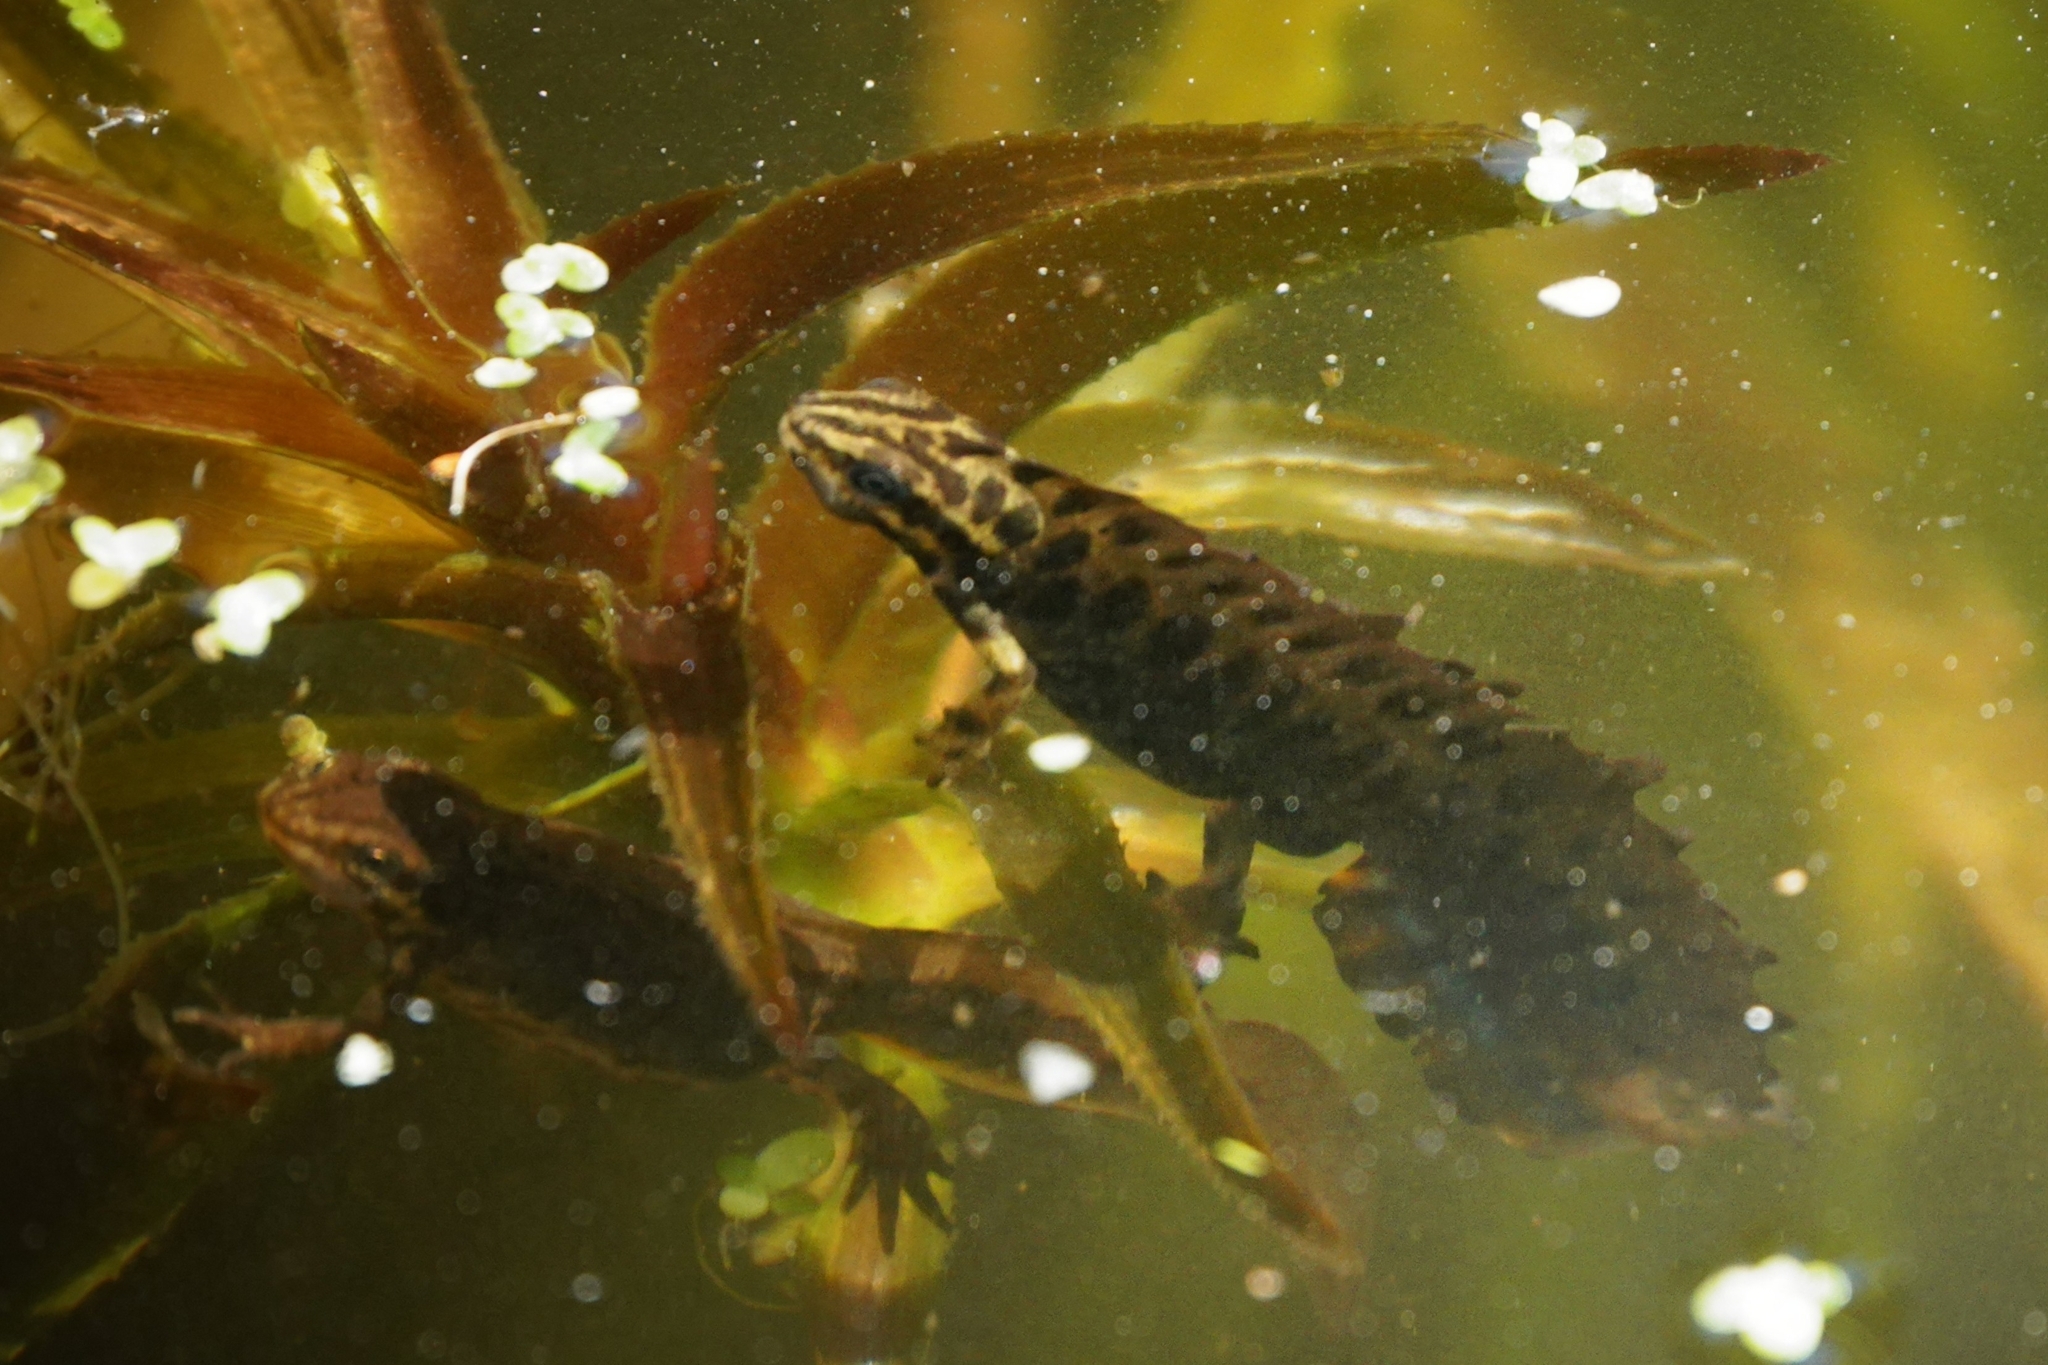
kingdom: Animalia
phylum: Chordata
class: Amphibia
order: Caudata
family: Salamandridae
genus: Lissotriton
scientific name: Lissotriton vulgaris
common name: Smooth newt
